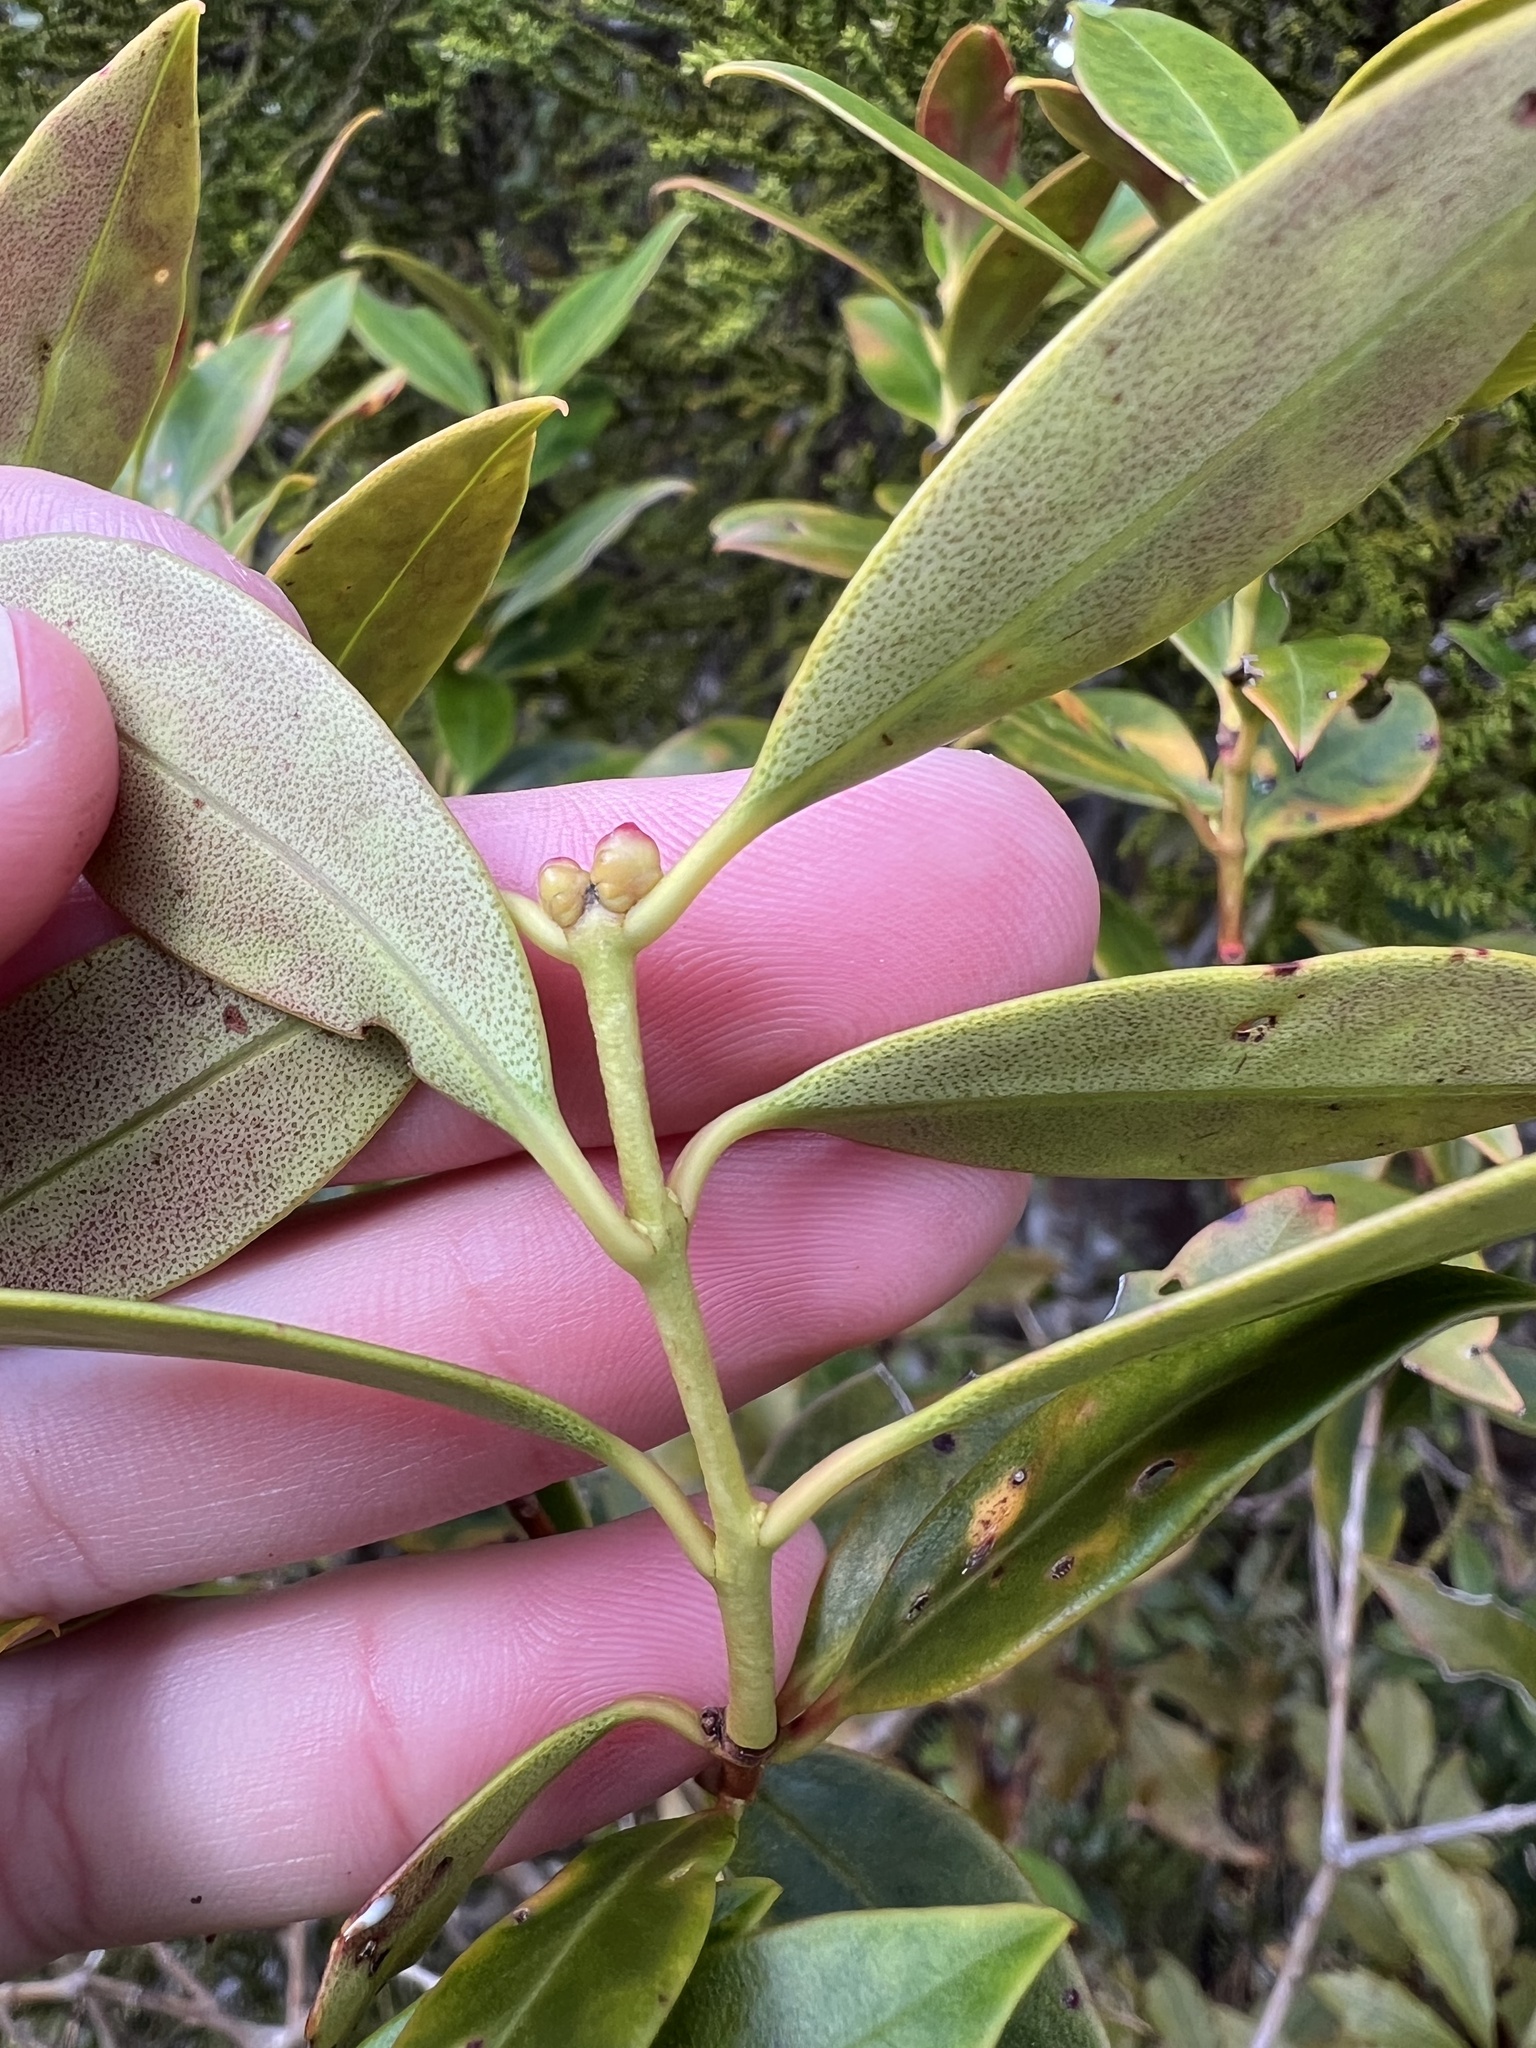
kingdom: Plantae
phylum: Tracheophyta
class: Magnoliopsida
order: Myrtales
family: Myrtaceae
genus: Metrosideros
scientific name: Metrosideros umbellata
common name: Southern rata
